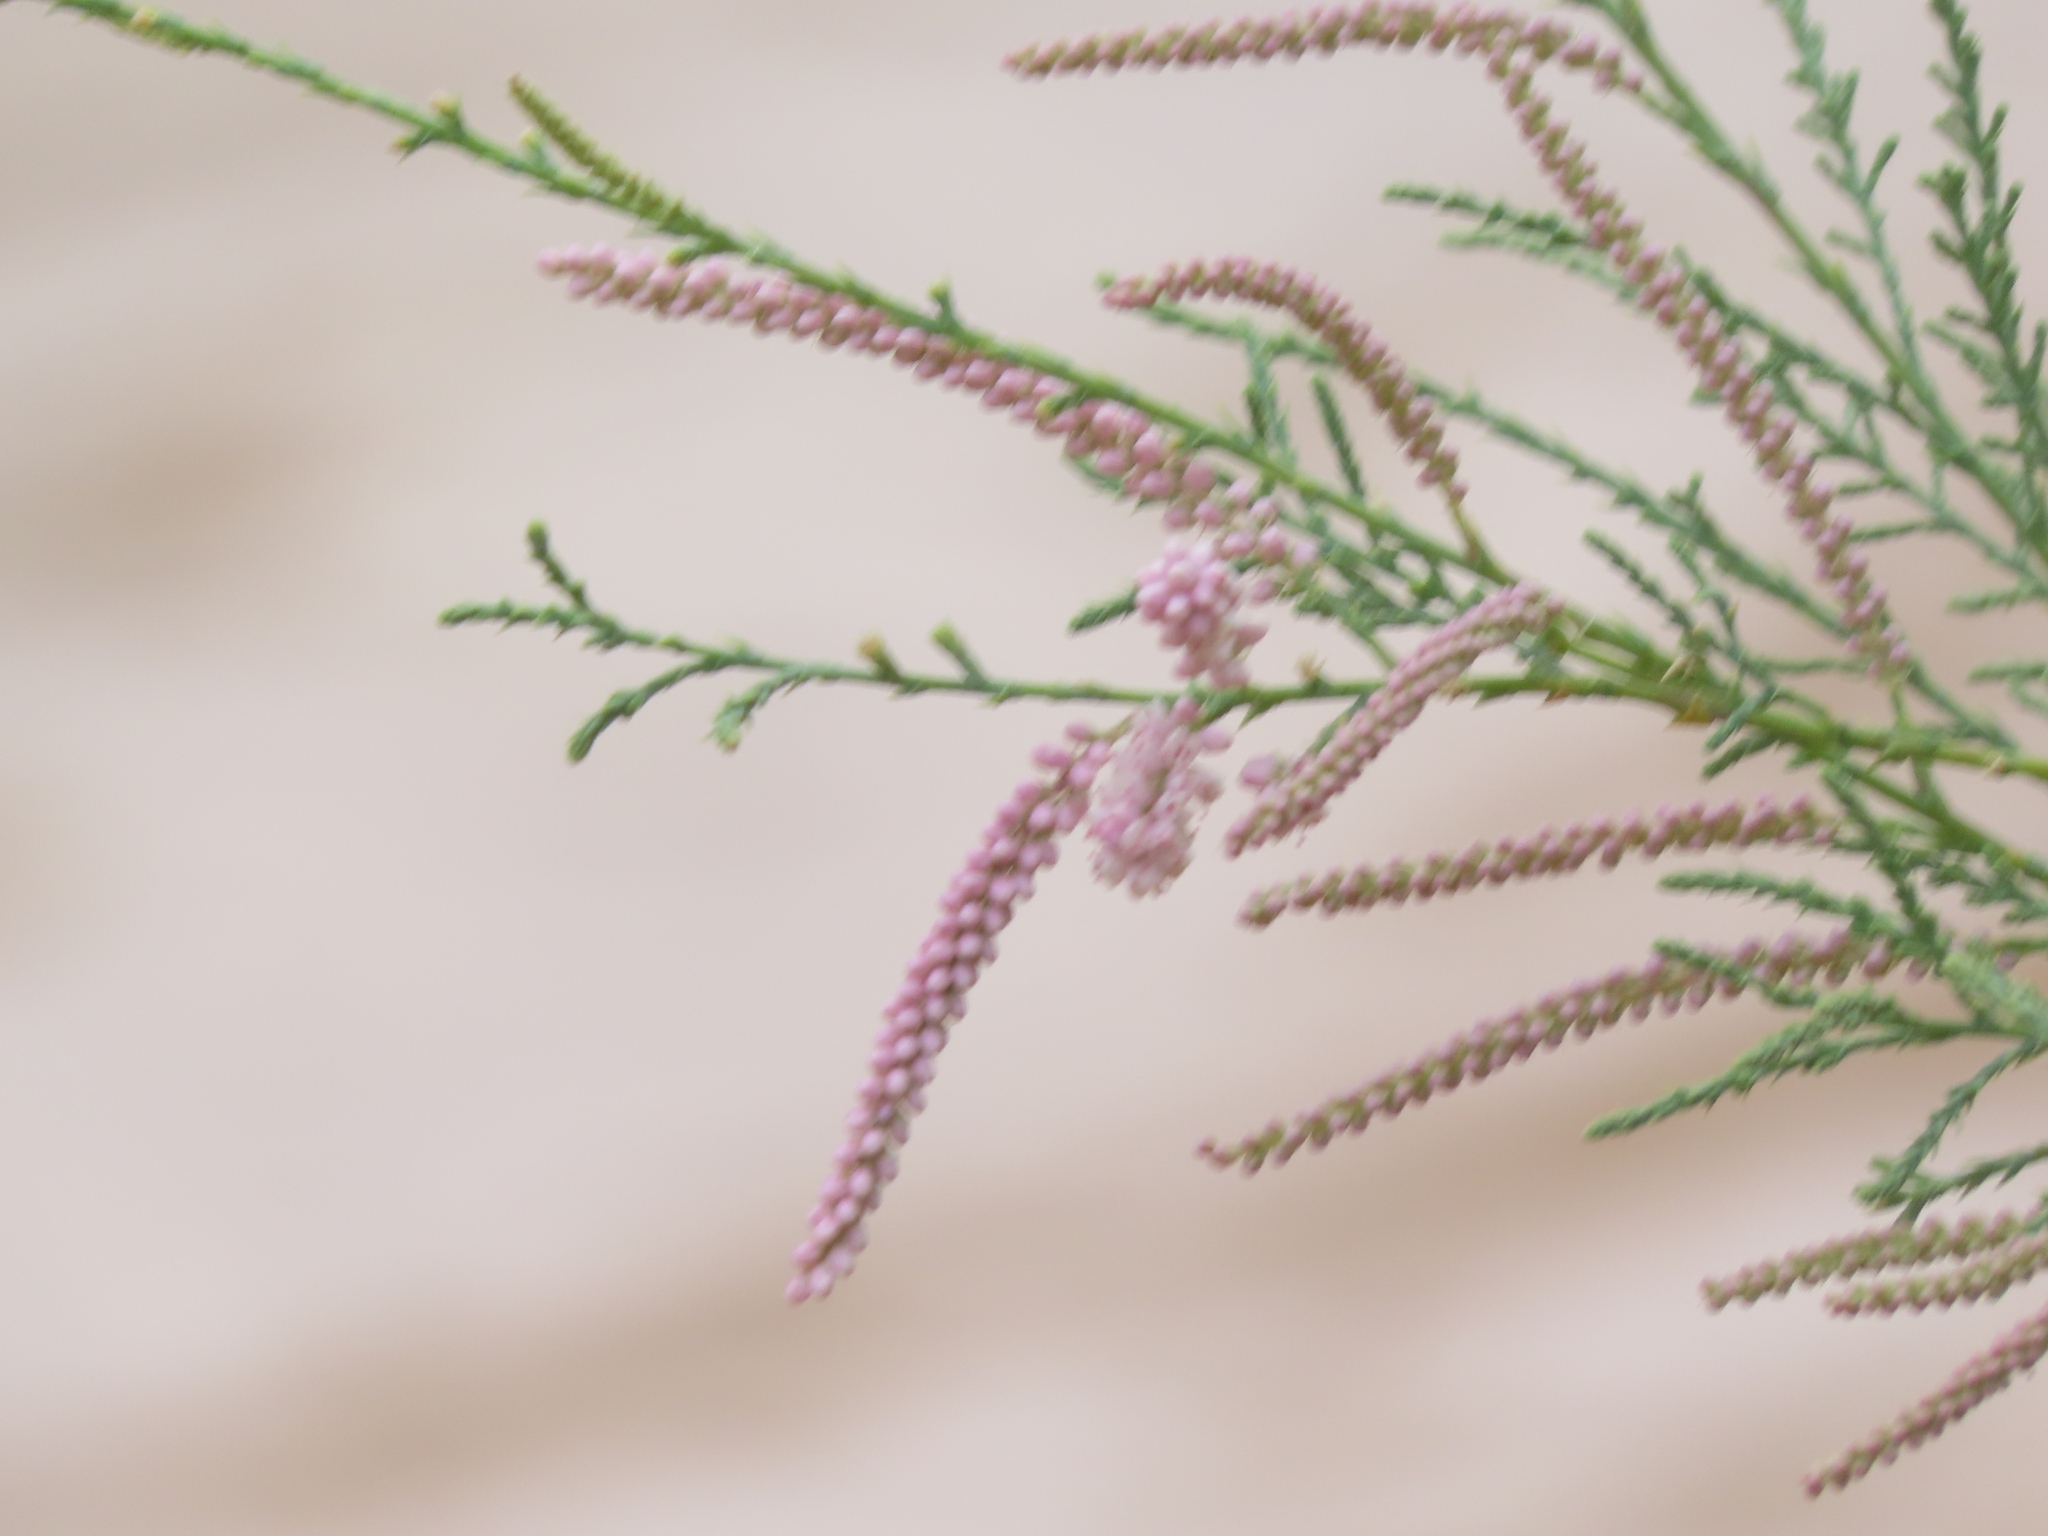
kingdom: Plantae
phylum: Tracheophyta
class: Magnoliopsida
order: Caryophyllales
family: Tamaricaceae
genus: Tamarix
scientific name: Tamarix
